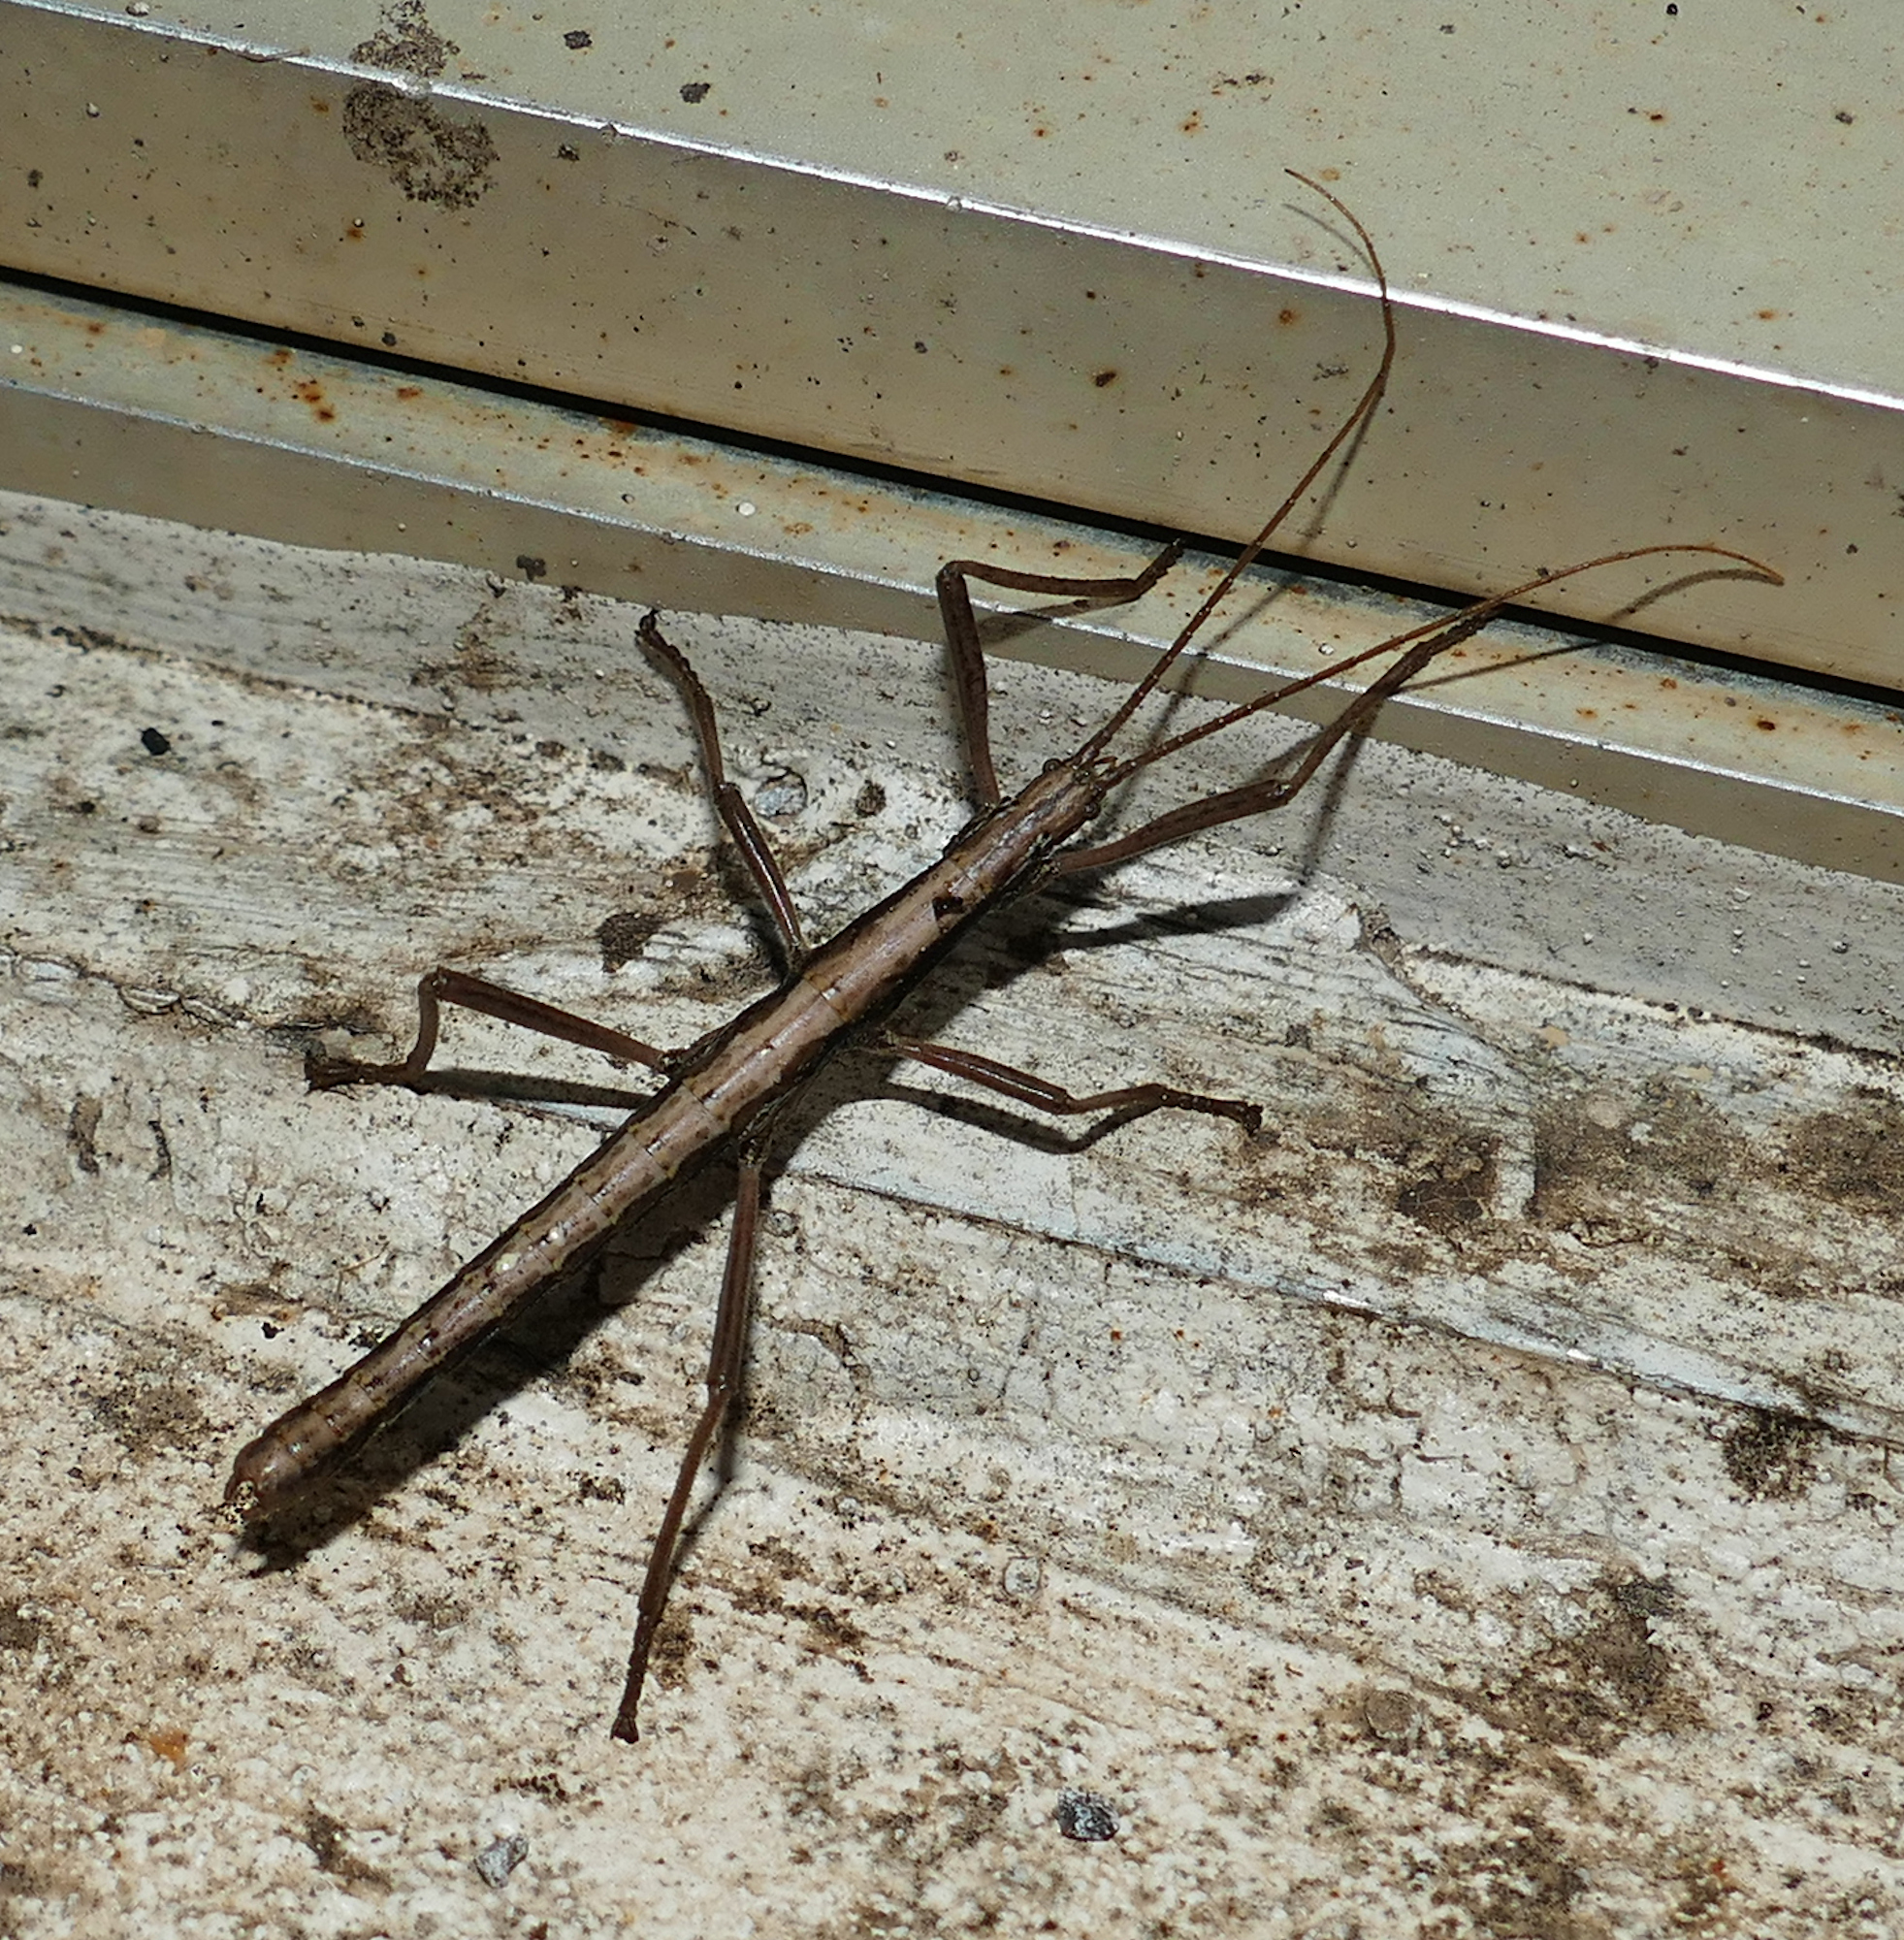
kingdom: Animalia
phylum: Arthropoda
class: Insecta
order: Phasmida
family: Pseudophasmatidae
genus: Anisomorpha
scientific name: Anisomorpha ferruginea
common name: Dark walkingstick
